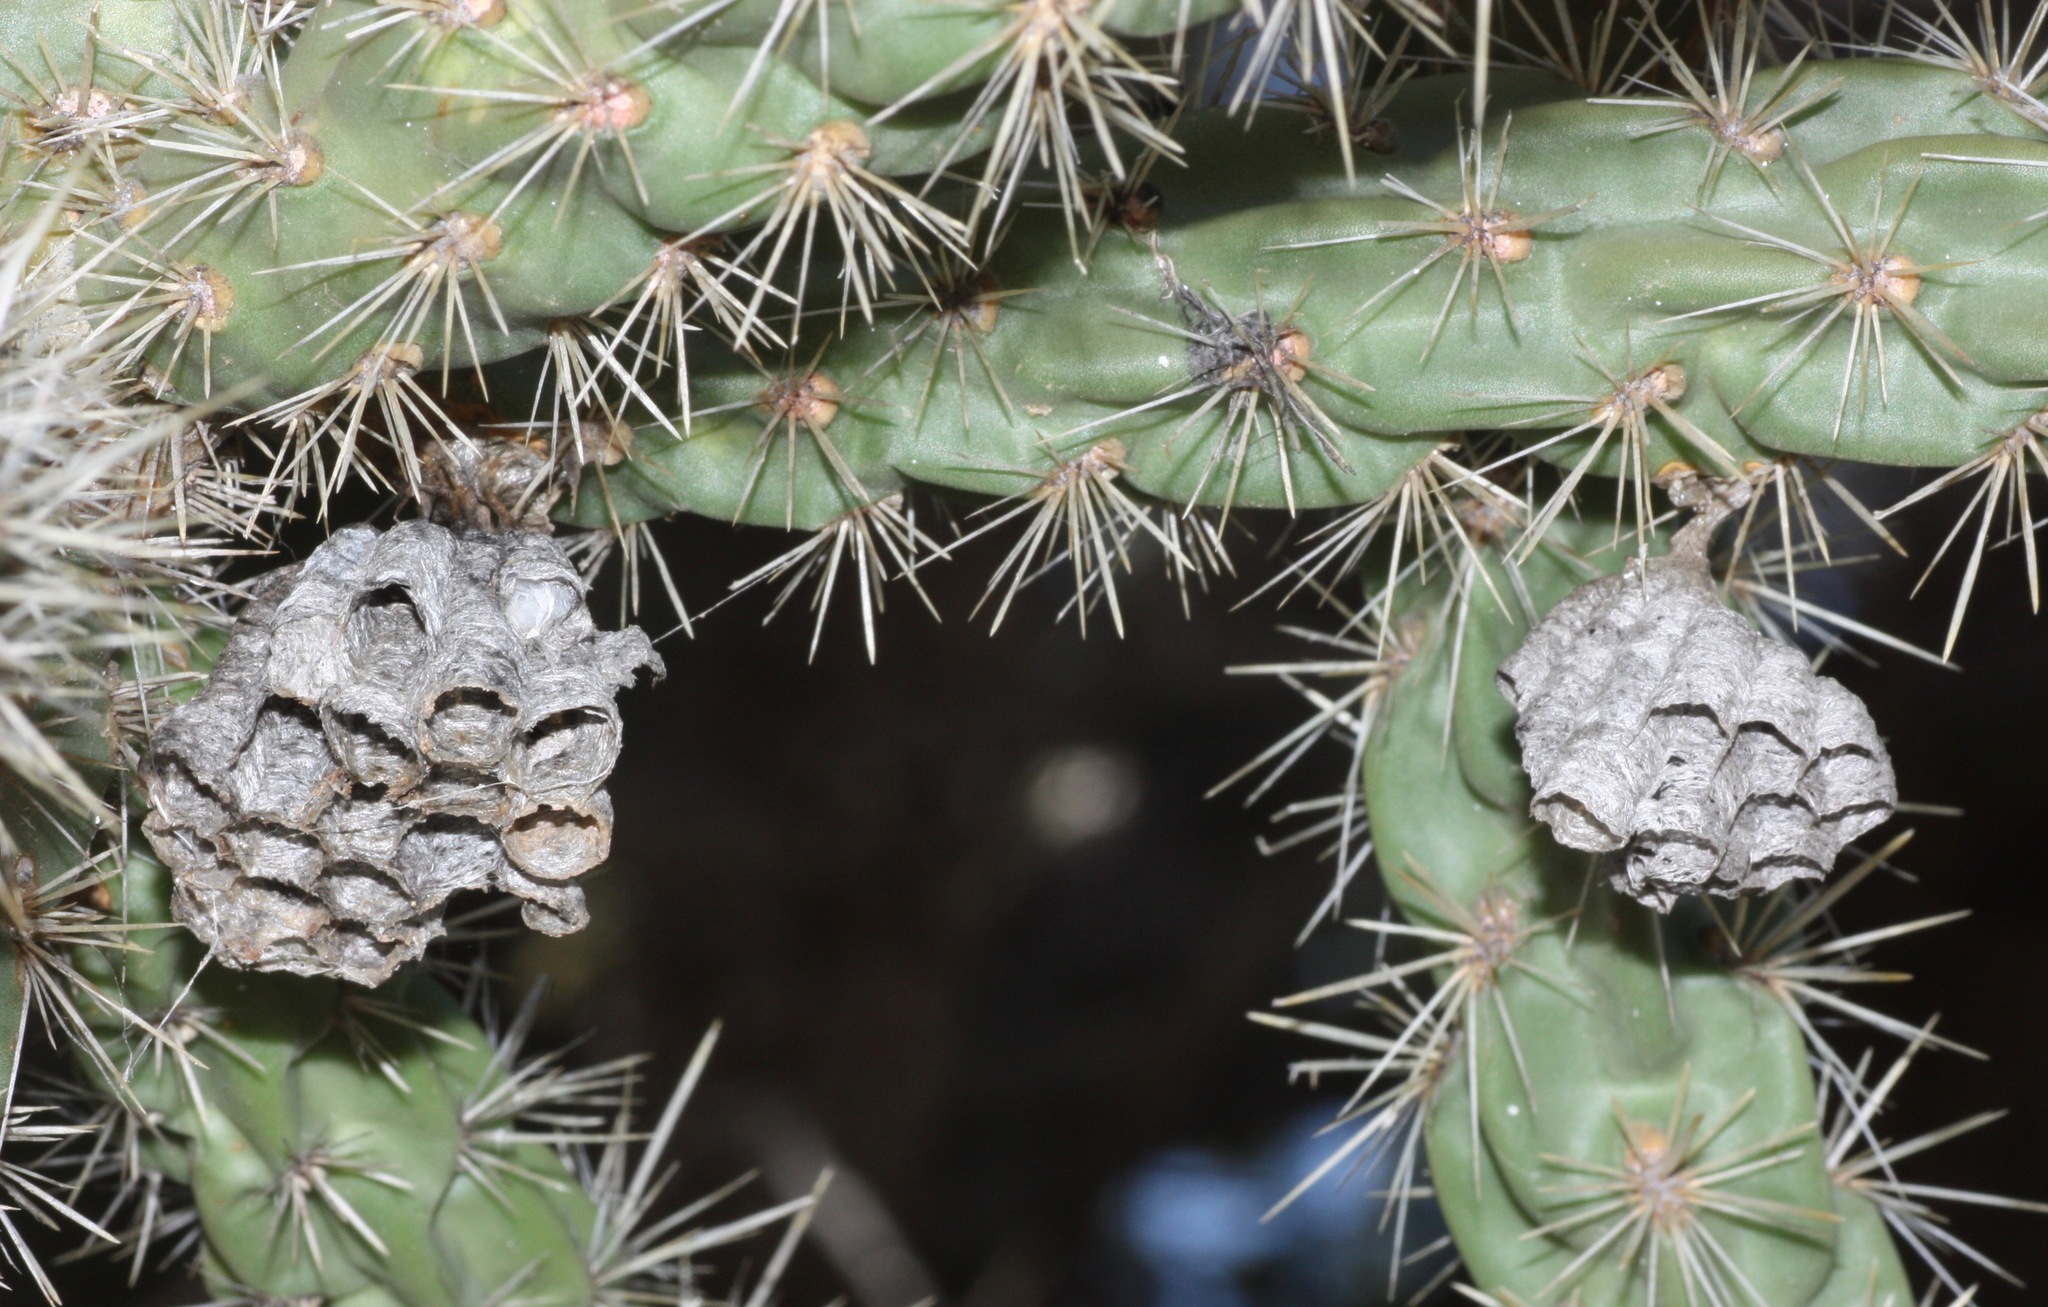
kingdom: Animalia
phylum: Arthropoda
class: Insecta
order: Hymenoptera
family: Eumenidae
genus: Polistes
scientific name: Polistes
